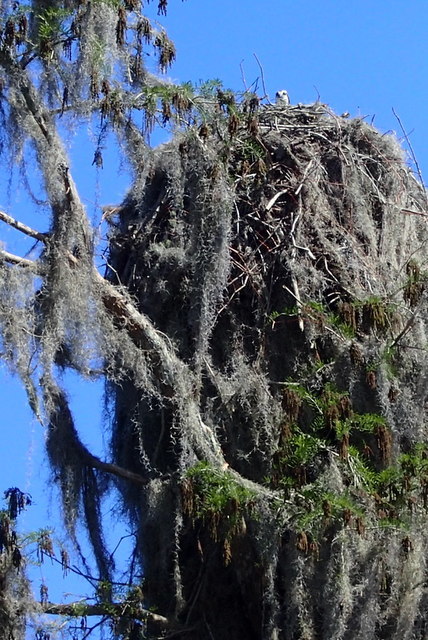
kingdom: Animalia
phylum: Chordata
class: Aves
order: Accipitriformes
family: Pandionidae
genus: Pandion
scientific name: Pandion haliaetus
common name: Osprey
